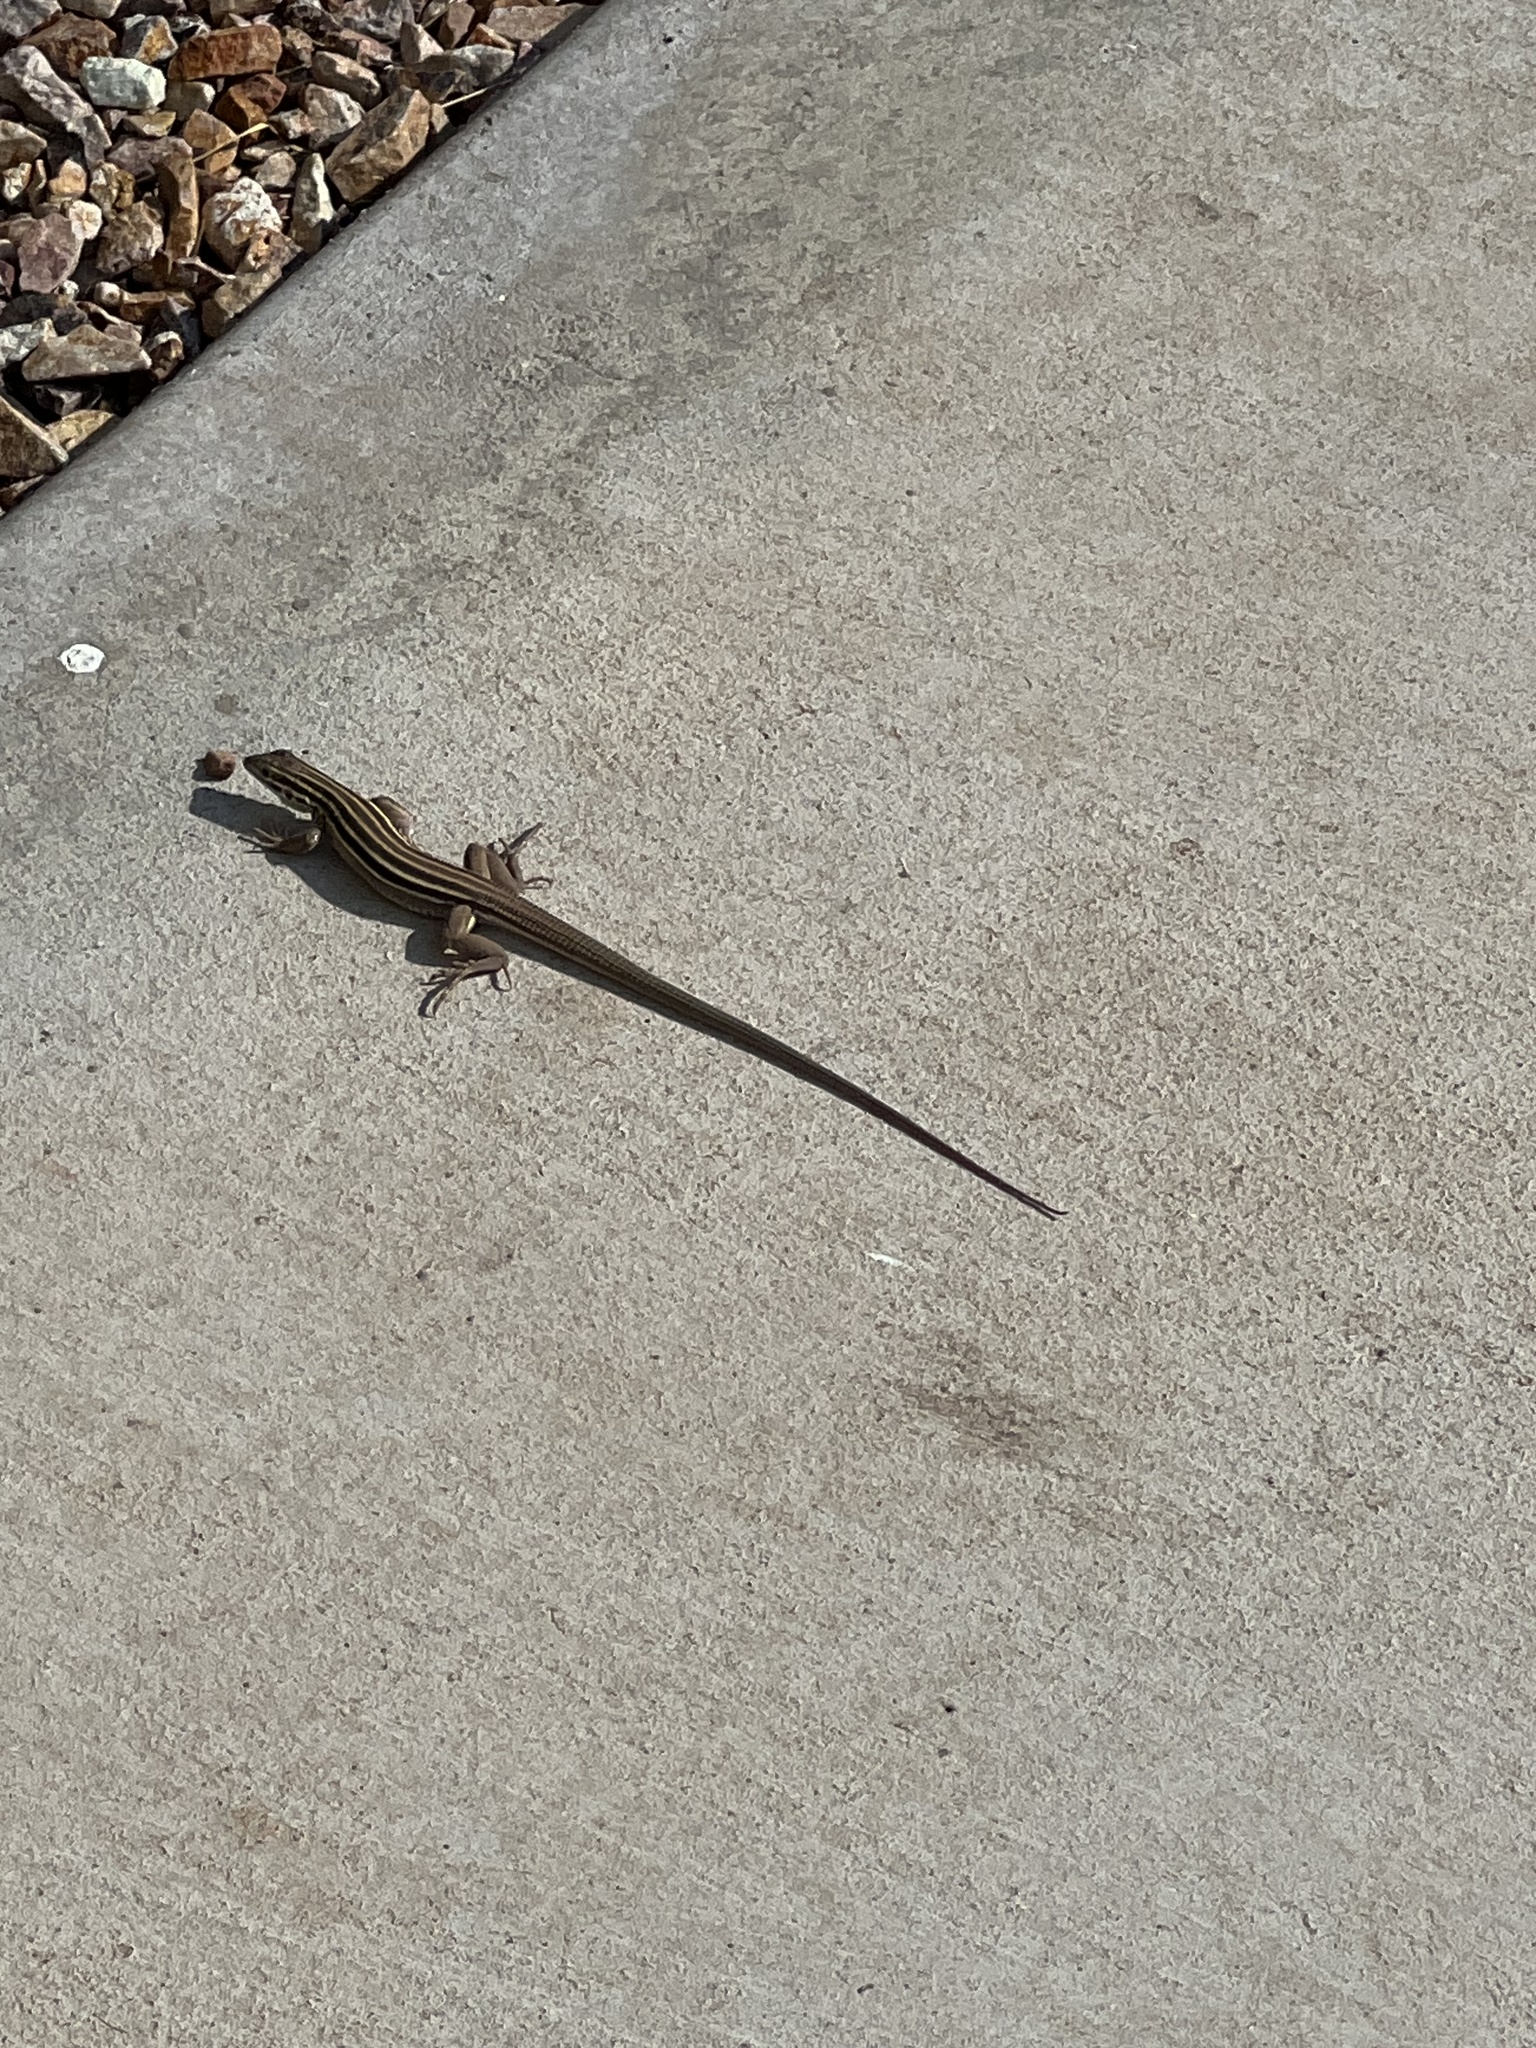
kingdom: Animalia
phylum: Chordata
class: Squamata
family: Teiidae
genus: Aspidoscelis
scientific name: Aspidoscelis sonorae
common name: Sonoran spotted whiptail
